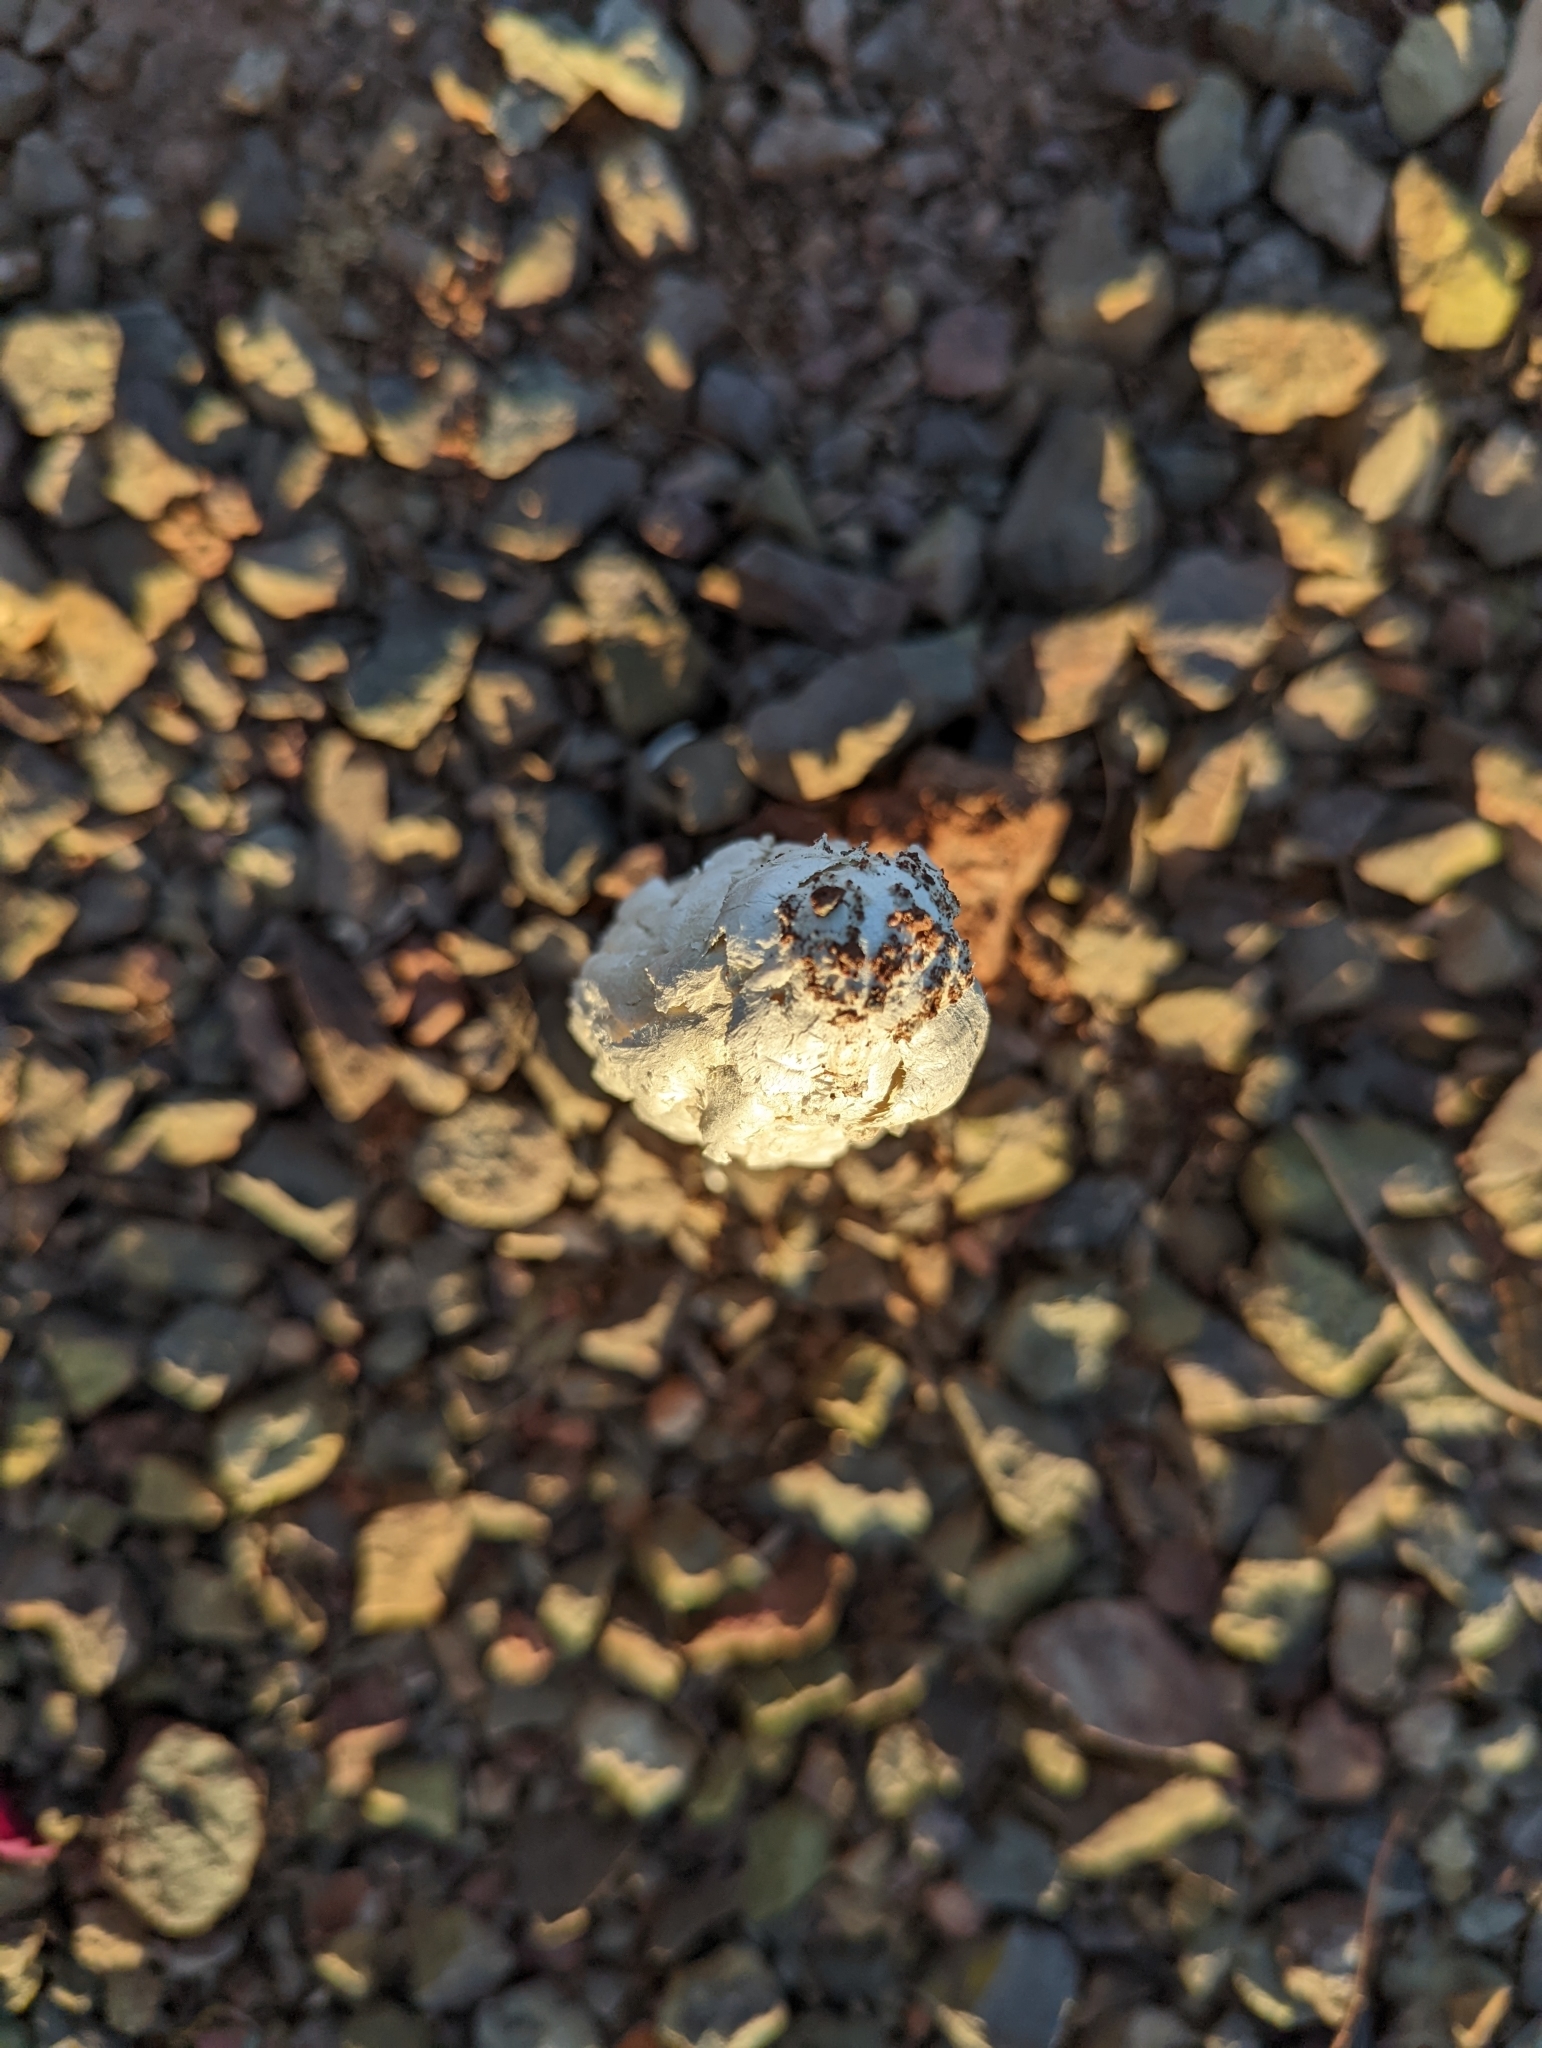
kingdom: Fungi
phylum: Basidiomycota
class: Agaricomycetes
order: Agaricales
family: Agaricaceae
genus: Podaxis
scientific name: Podaxis pistillaris
